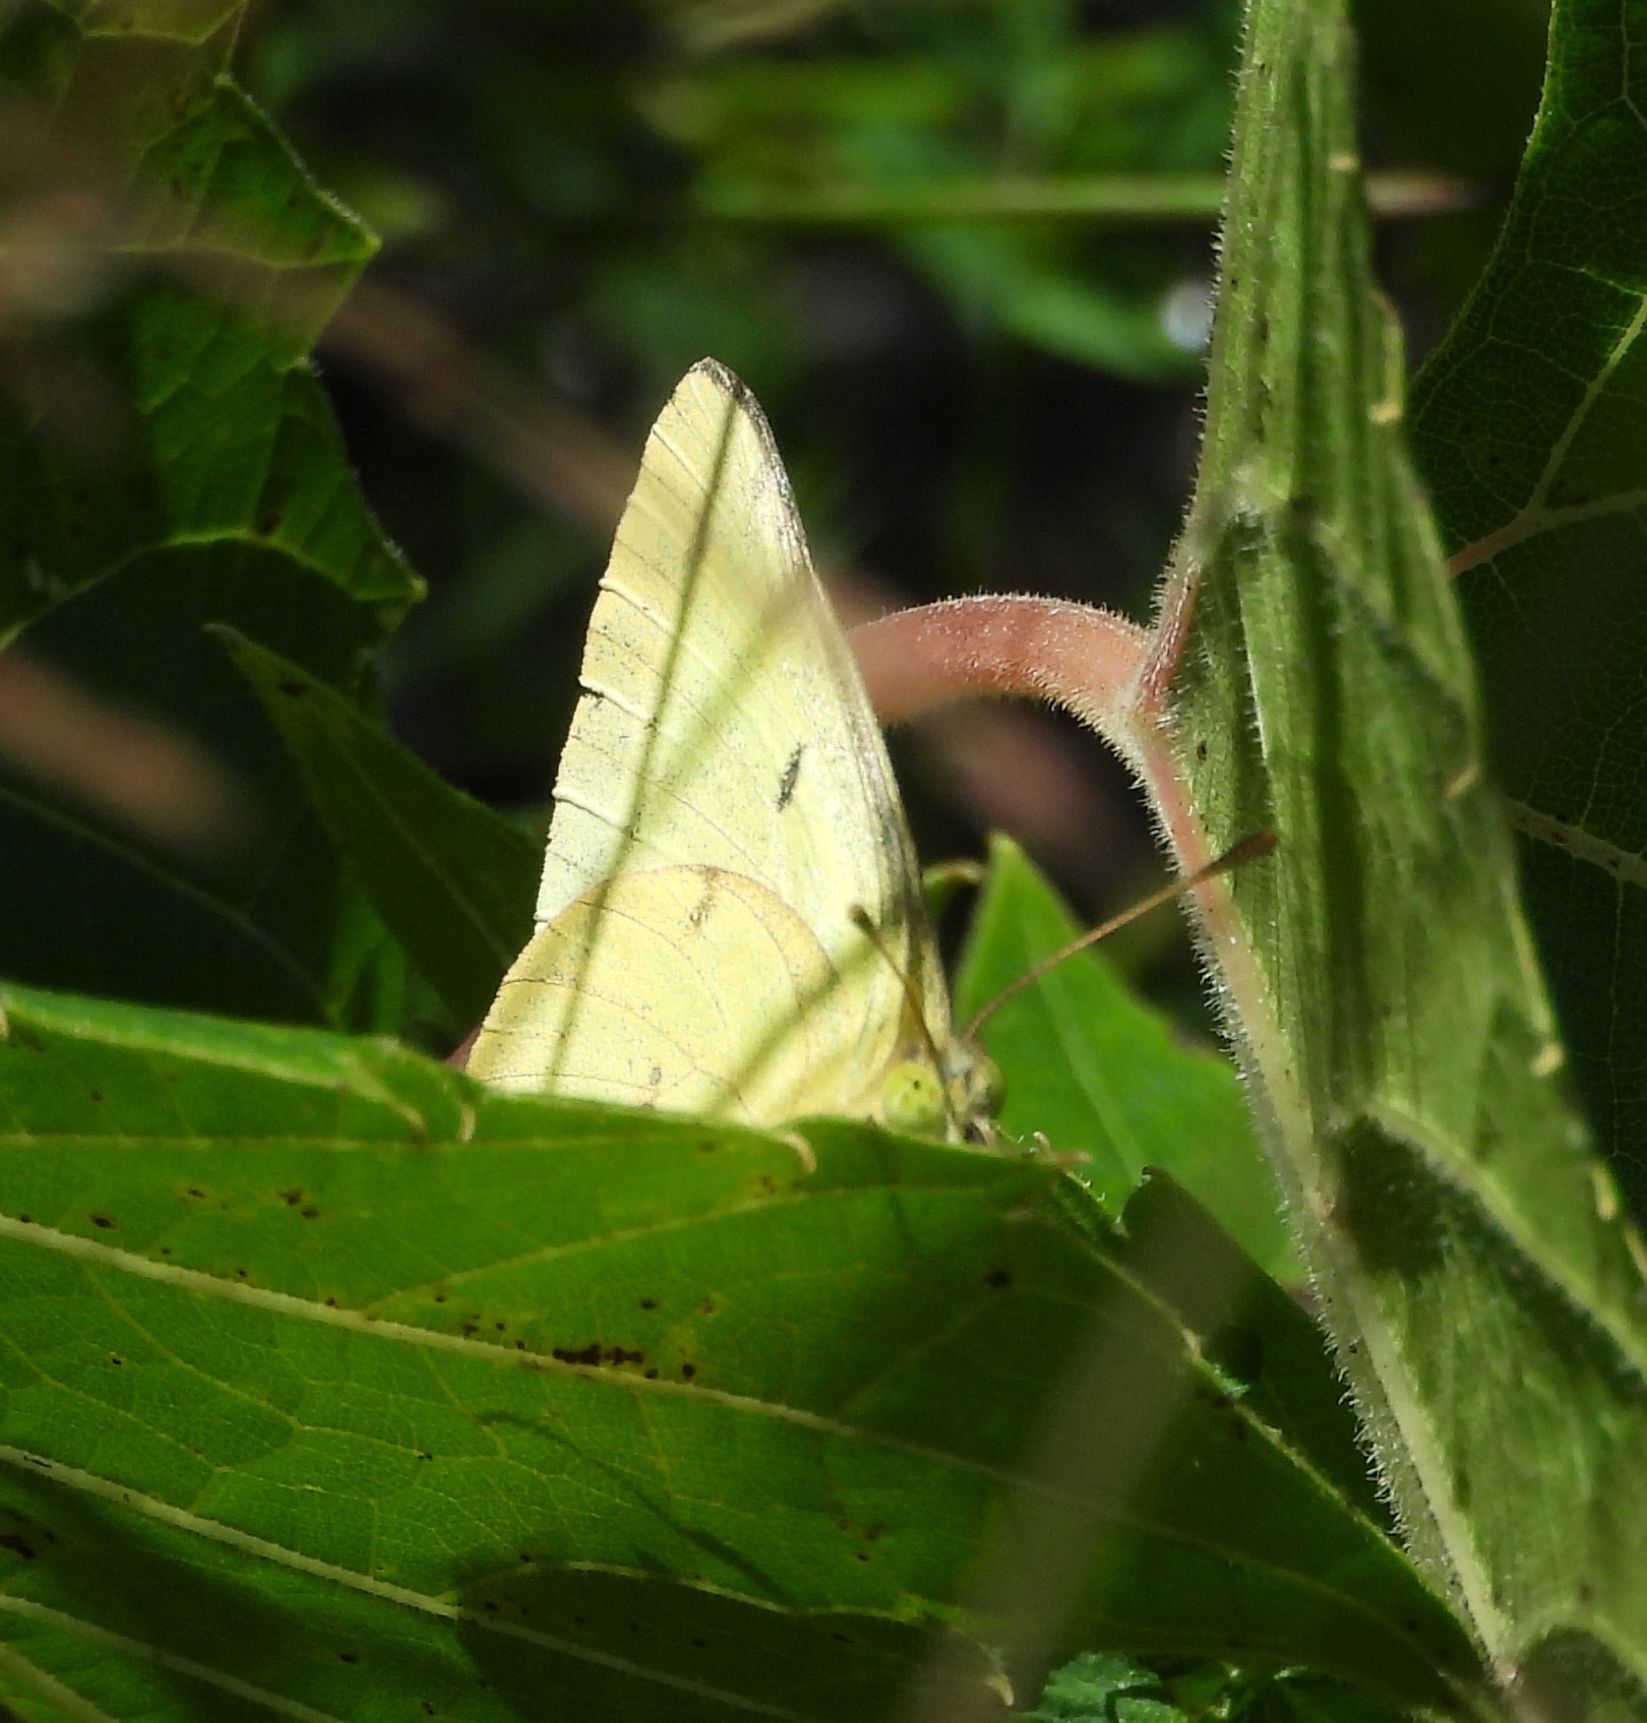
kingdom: Animalia
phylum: Arthropoda
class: Insecta
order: Lepidoptera
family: Pieridae
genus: Colias
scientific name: Colias philodice
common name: Clouded sulphur
